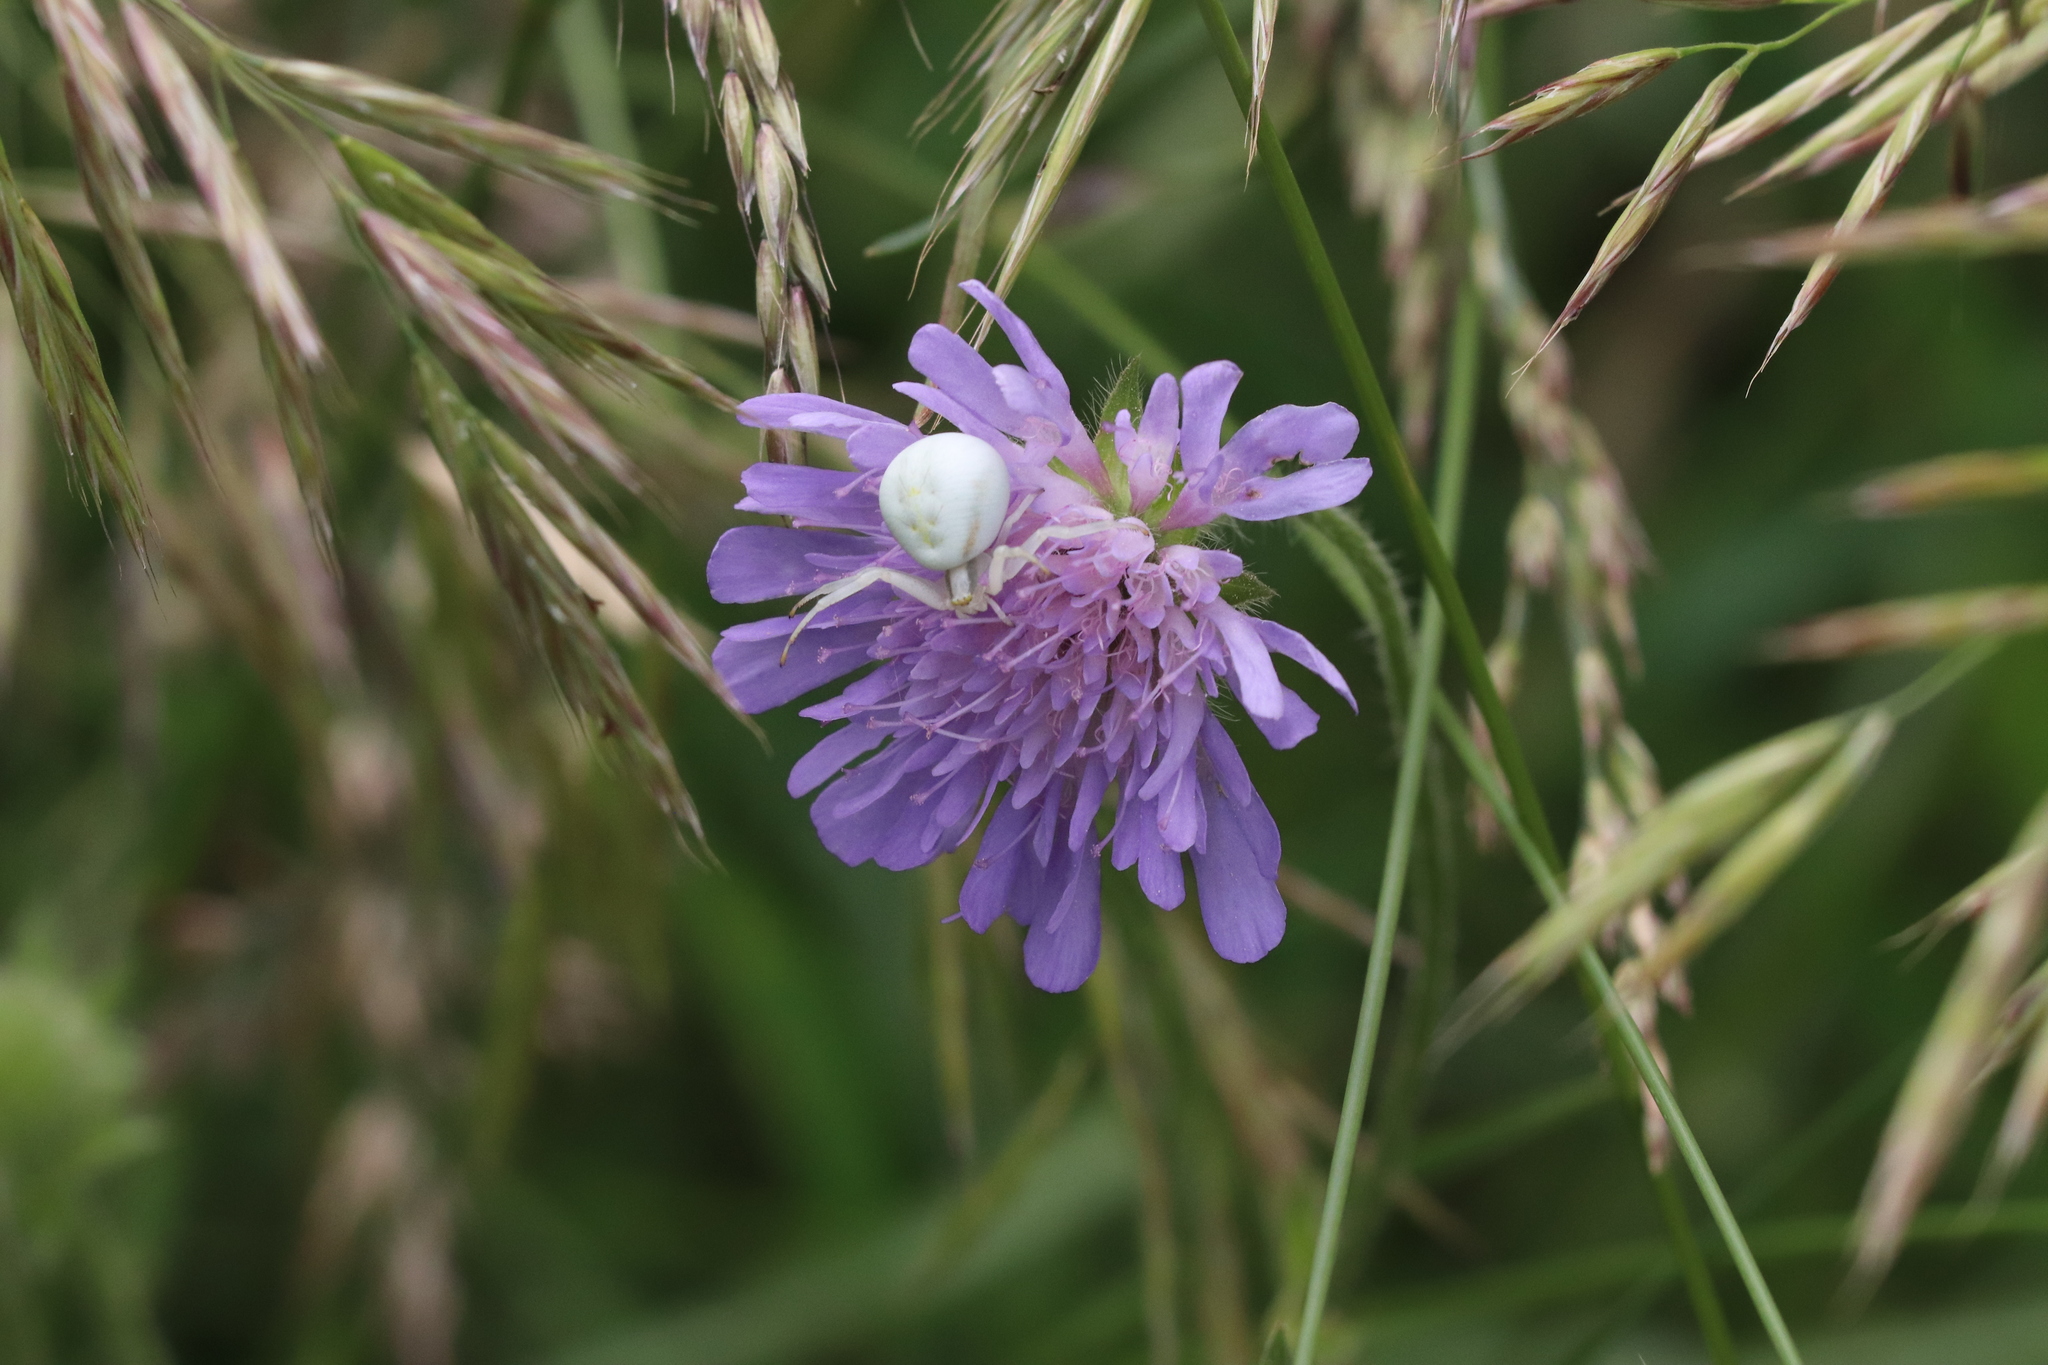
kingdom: Animalia
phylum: Arthropoda
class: Arachnida
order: Araneae
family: Thomisidae
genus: Misumena
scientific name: Misumena vatia
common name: Goldenrod crab spider
